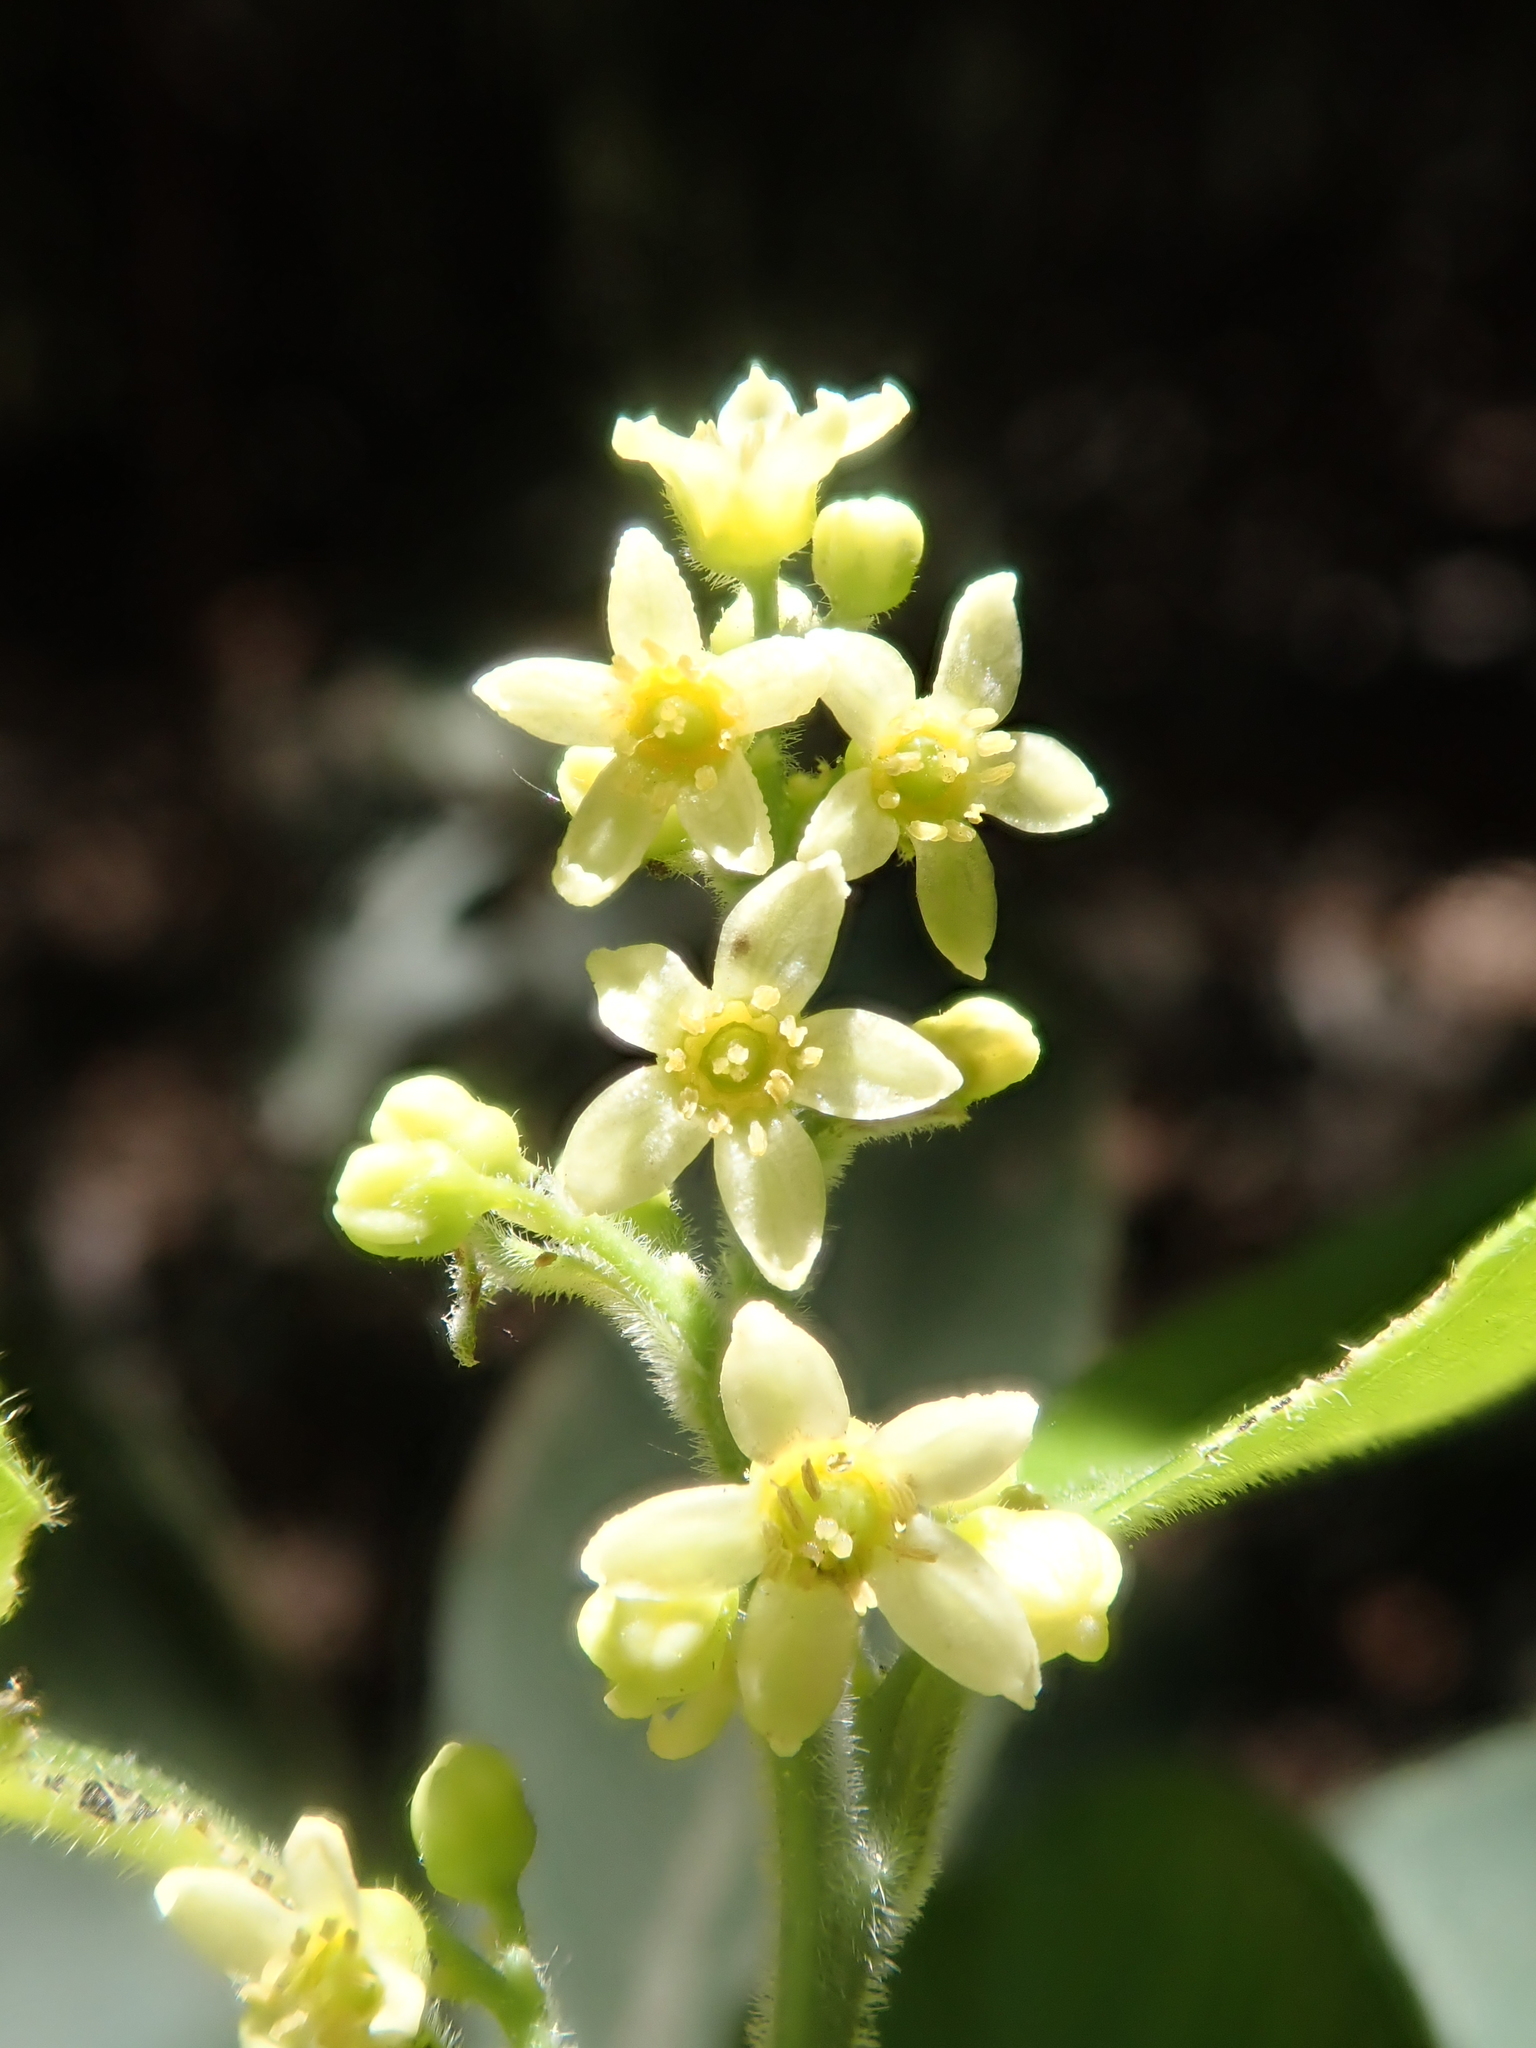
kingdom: Plantae
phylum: Tracheophyta
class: Magnoliopsida
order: Sapindales
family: Anacardiaceae
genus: Lithraea
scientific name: Lithraea caustica
